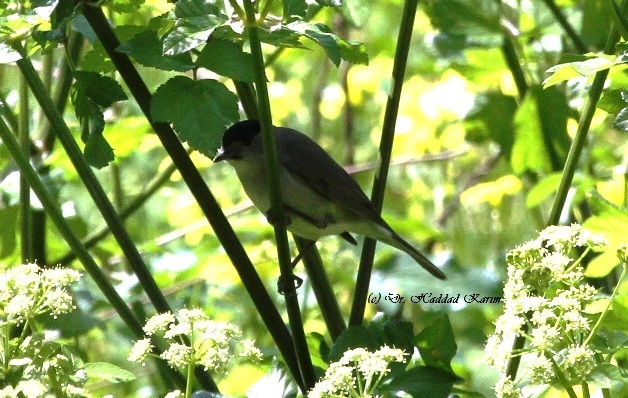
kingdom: Animalia
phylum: Chordata
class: Aves
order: Passeriformes
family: Sylviidae
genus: Sylvia
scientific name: Sylvia atricapilla
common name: Eurasian blackcap
